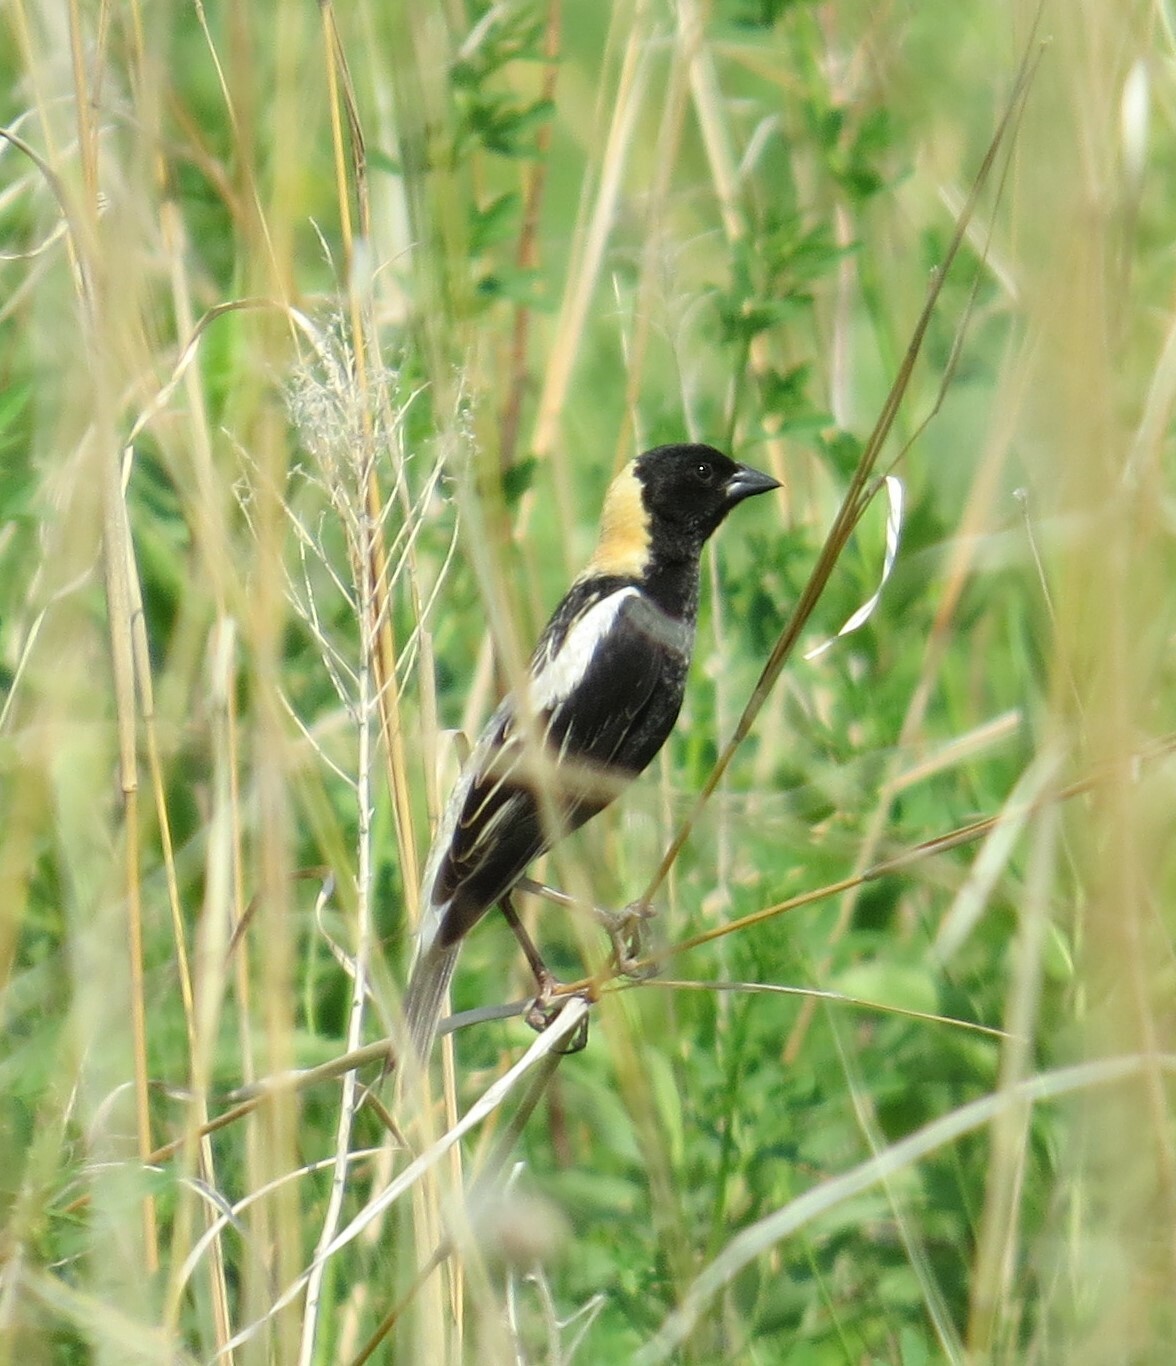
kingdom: Animalia
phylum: Chordata
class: Aves
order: Passeriformes
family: Icteridae
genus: Dolichonyx
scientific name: Dolichonyx oryzivorus
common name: Bobolink
